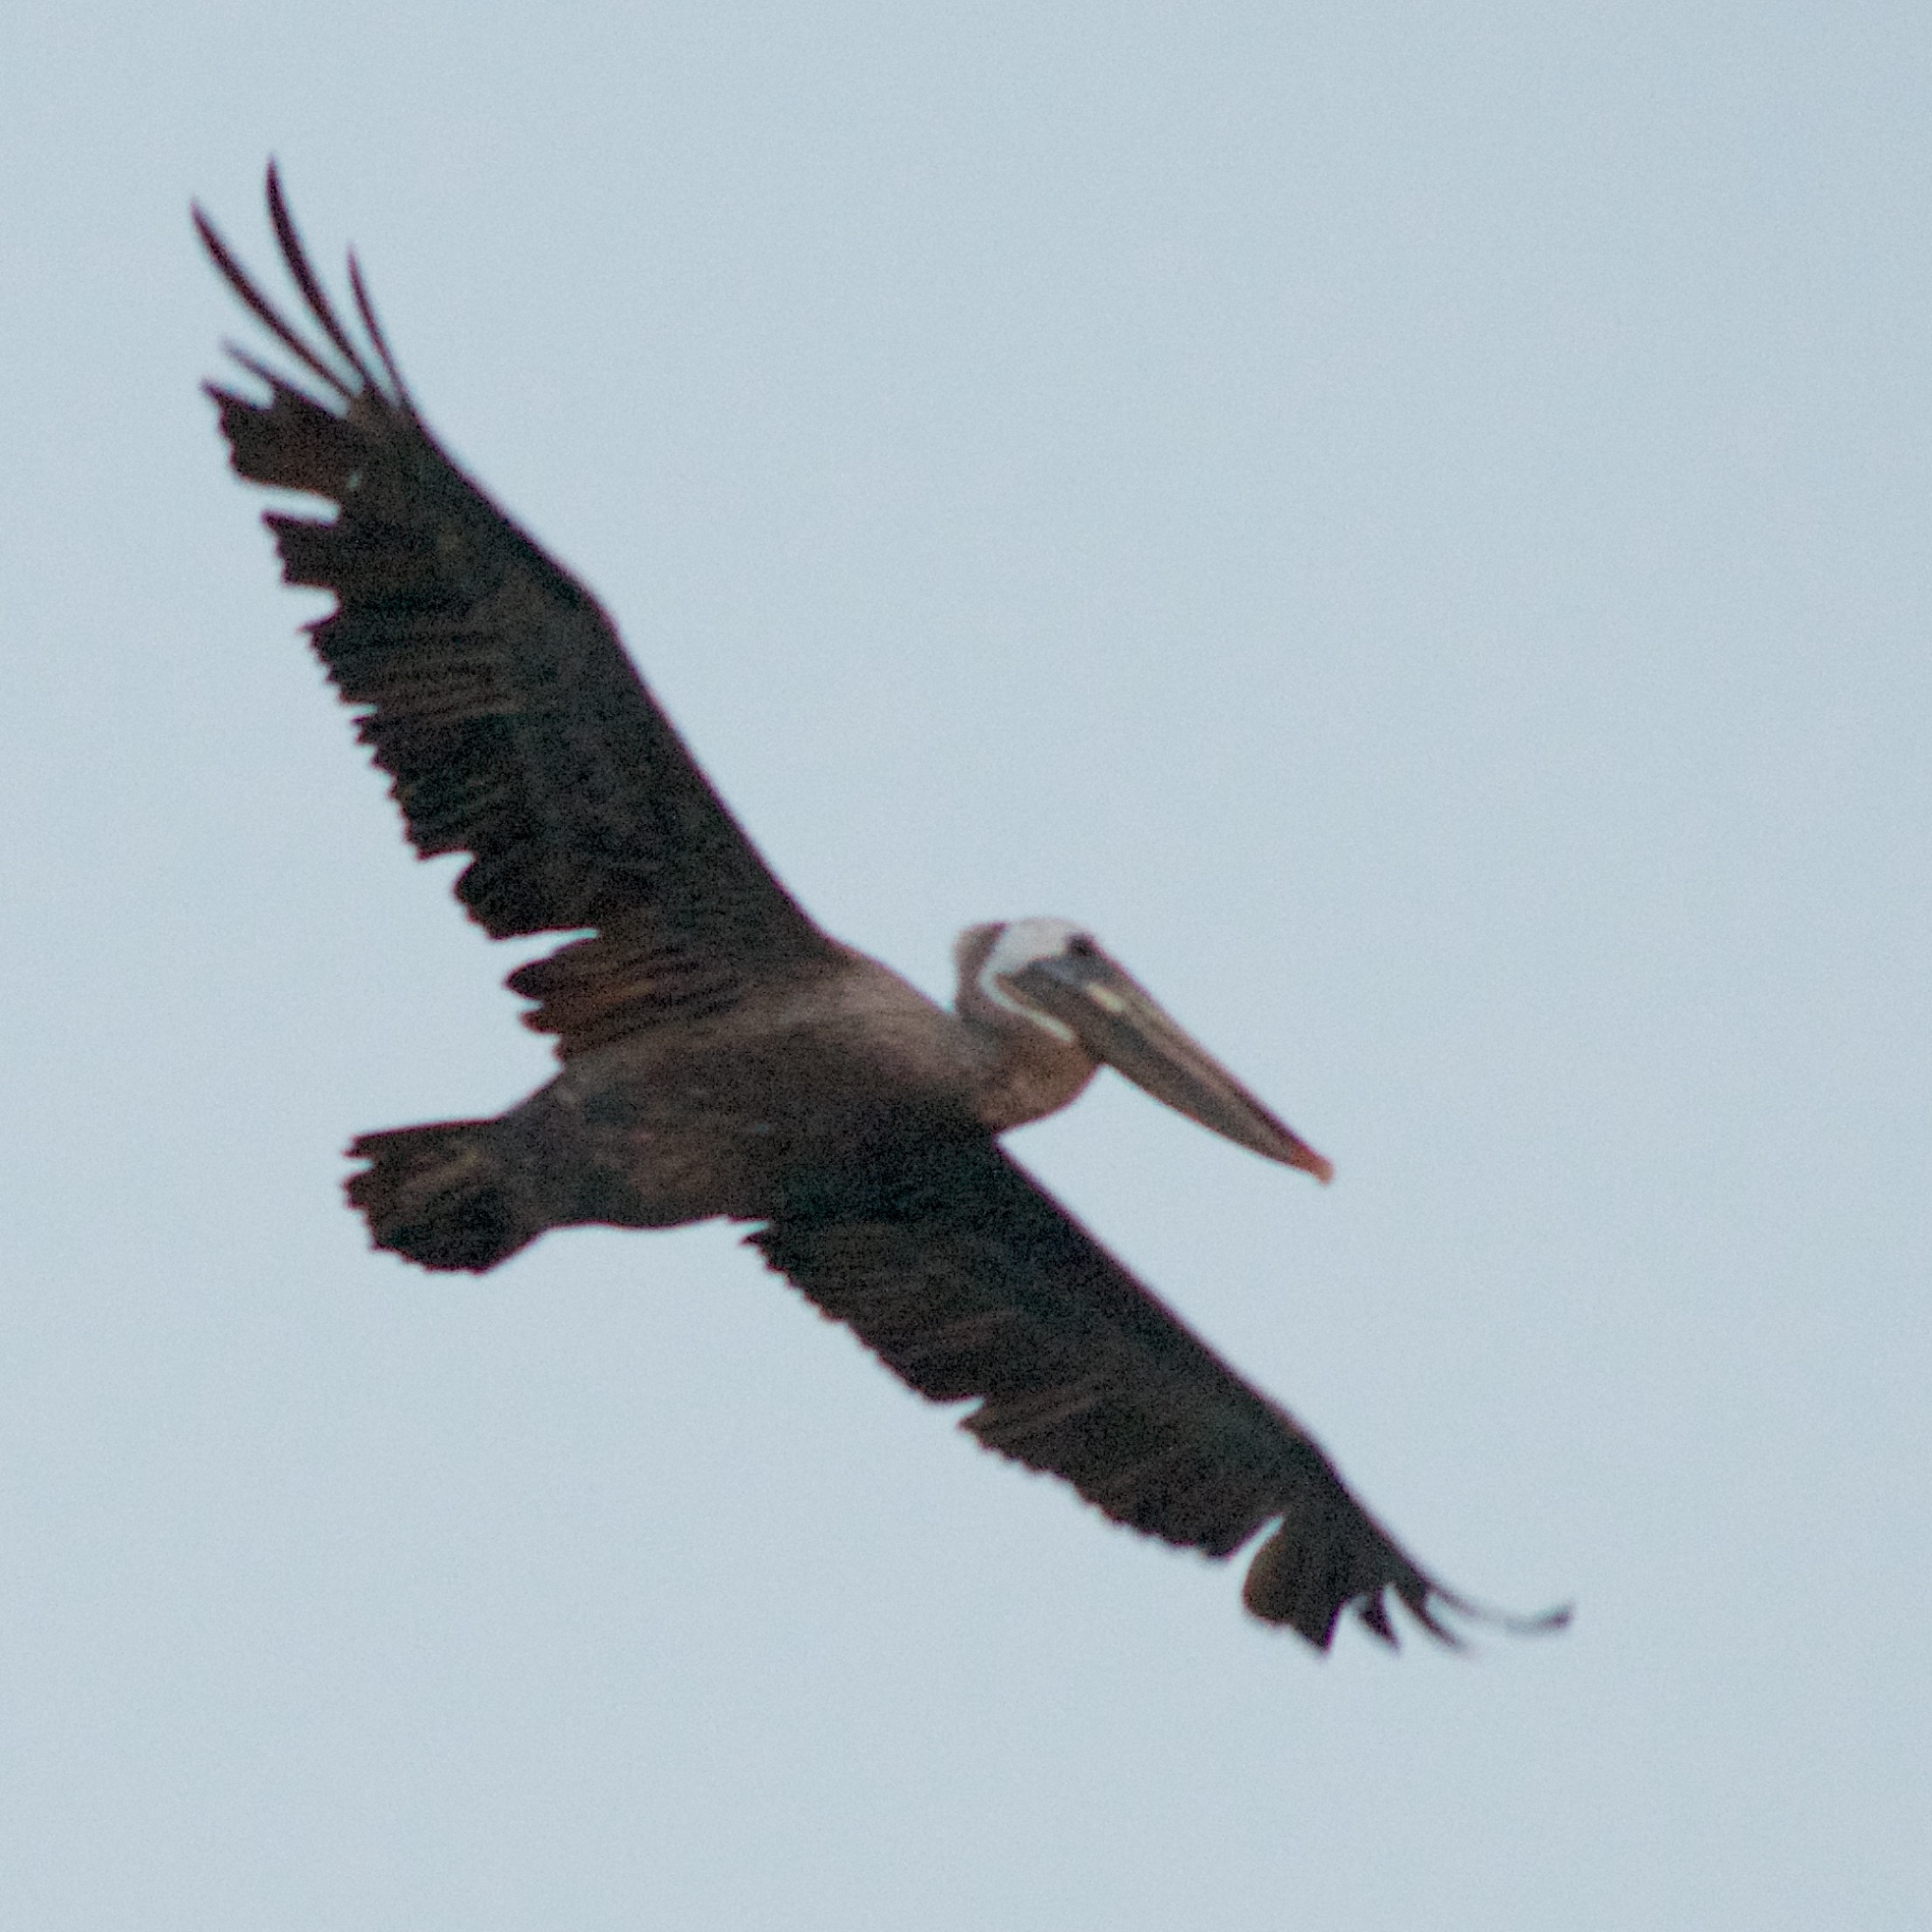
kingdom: Animalia
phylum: Chordata
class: Aves
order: Pelecaniformes
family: Pelecanidae
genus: Pelecanus
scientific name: Pelecanus occidentalis
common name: Brown pelican
